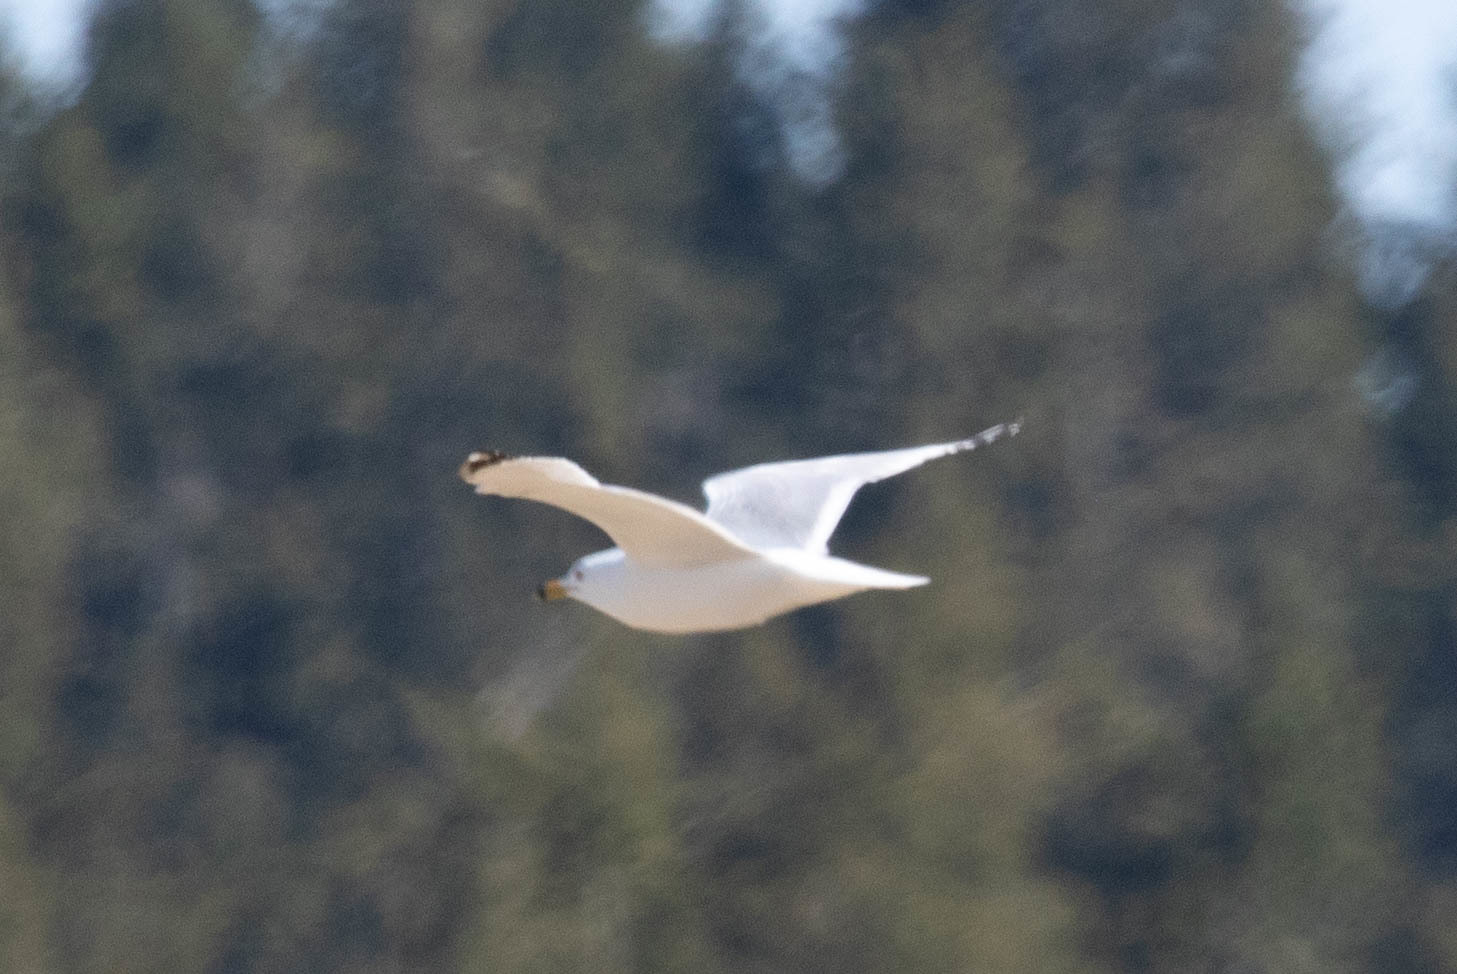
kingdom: Animalia
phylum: Chordata
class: Aves
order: Charadriiformes
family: Laridae
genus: Larus
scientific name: Larus delawarensis
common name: Ring-billed gull
